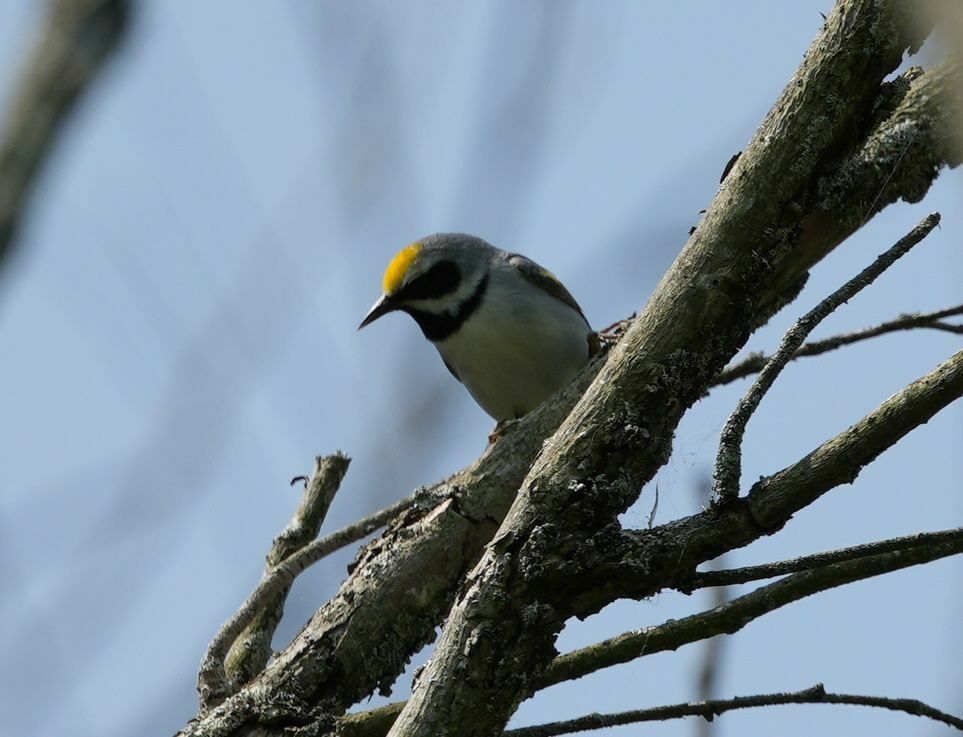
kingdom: Animalia
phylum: Chordata
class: Aves
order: Passeriformes
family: Parulidae
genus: Vermivora
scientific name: Vermivora chrysoptera
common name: Golden-winged warbler
